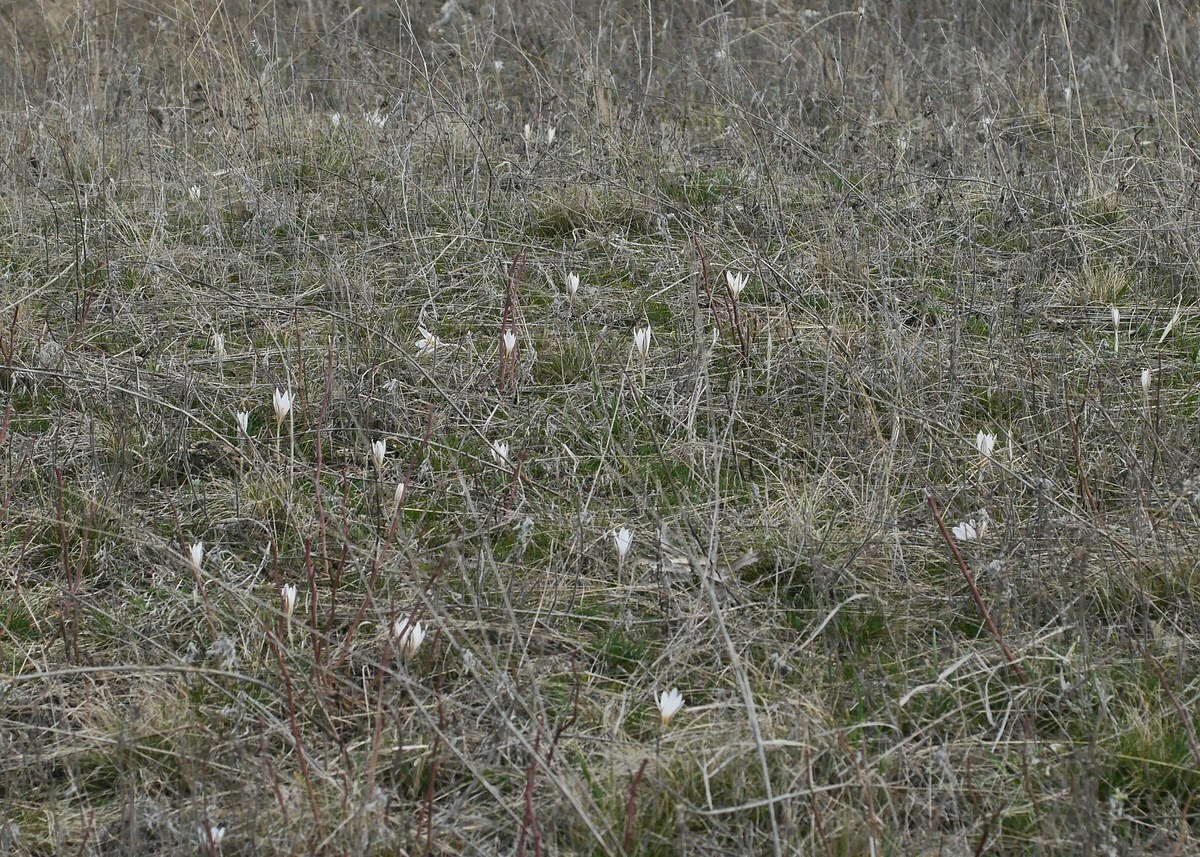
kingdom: Plantae
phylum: Tracheophyta
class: Liliopsida
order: Asparagales
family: Iridaceae
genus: Crocus
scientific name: Crocus reticulatus
